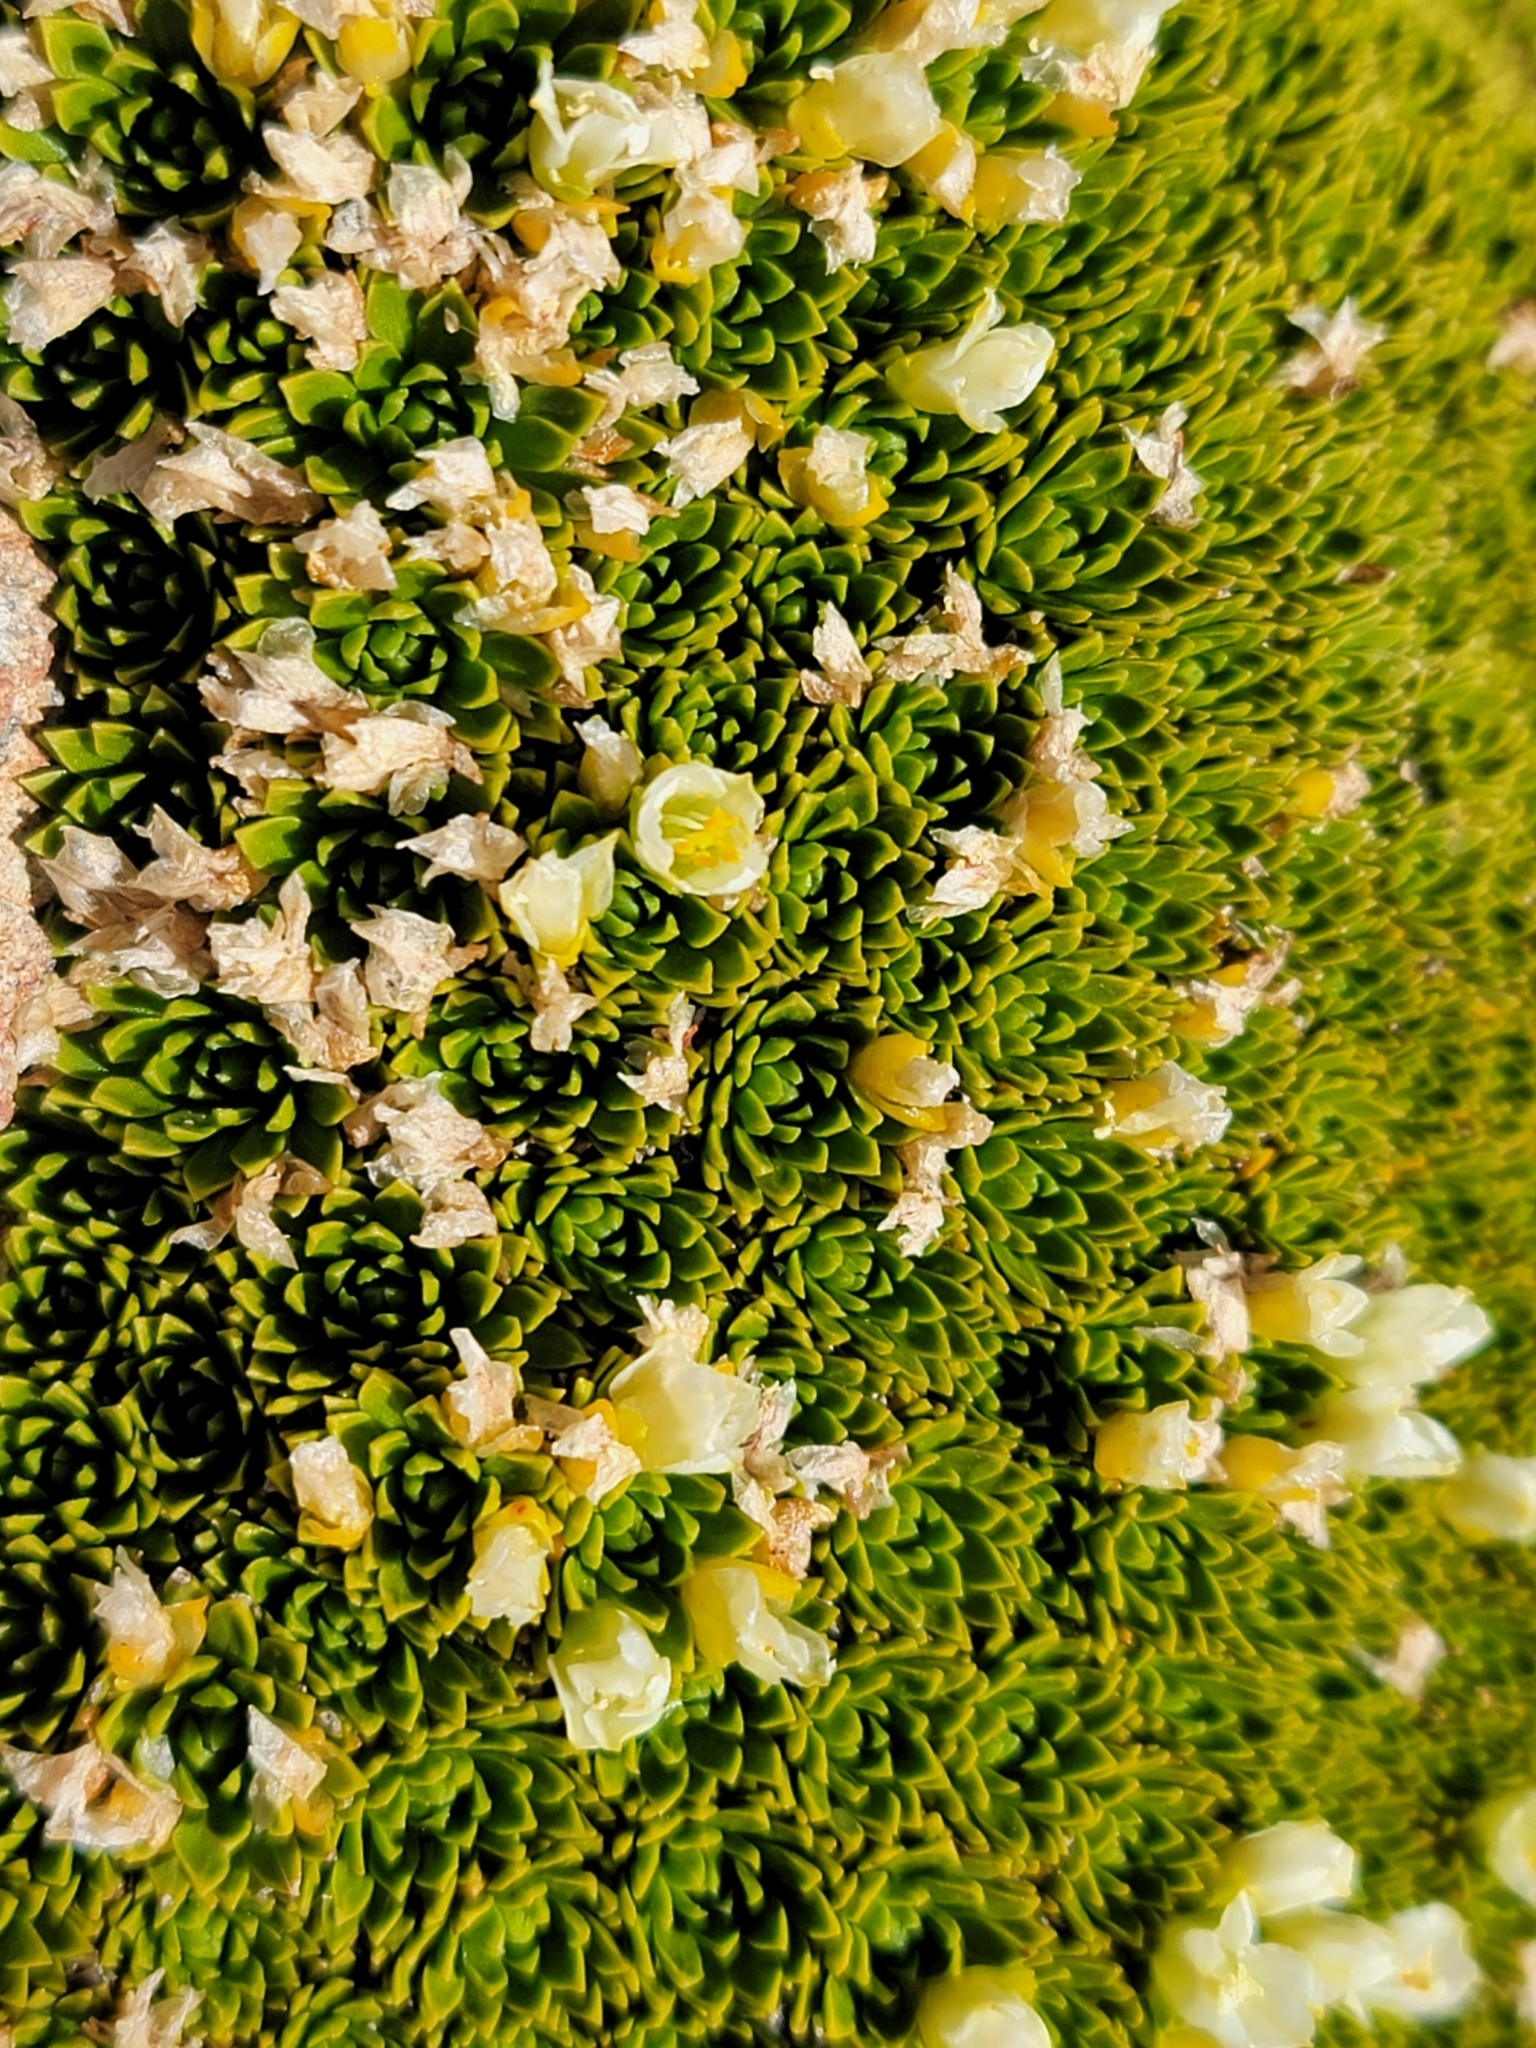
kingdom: Plantae
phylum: Tracheophyta
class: Magnoliopsida
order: Caryophyllales
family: Montiaceae
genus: Hectorella
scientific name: Hectorella caespitosa
